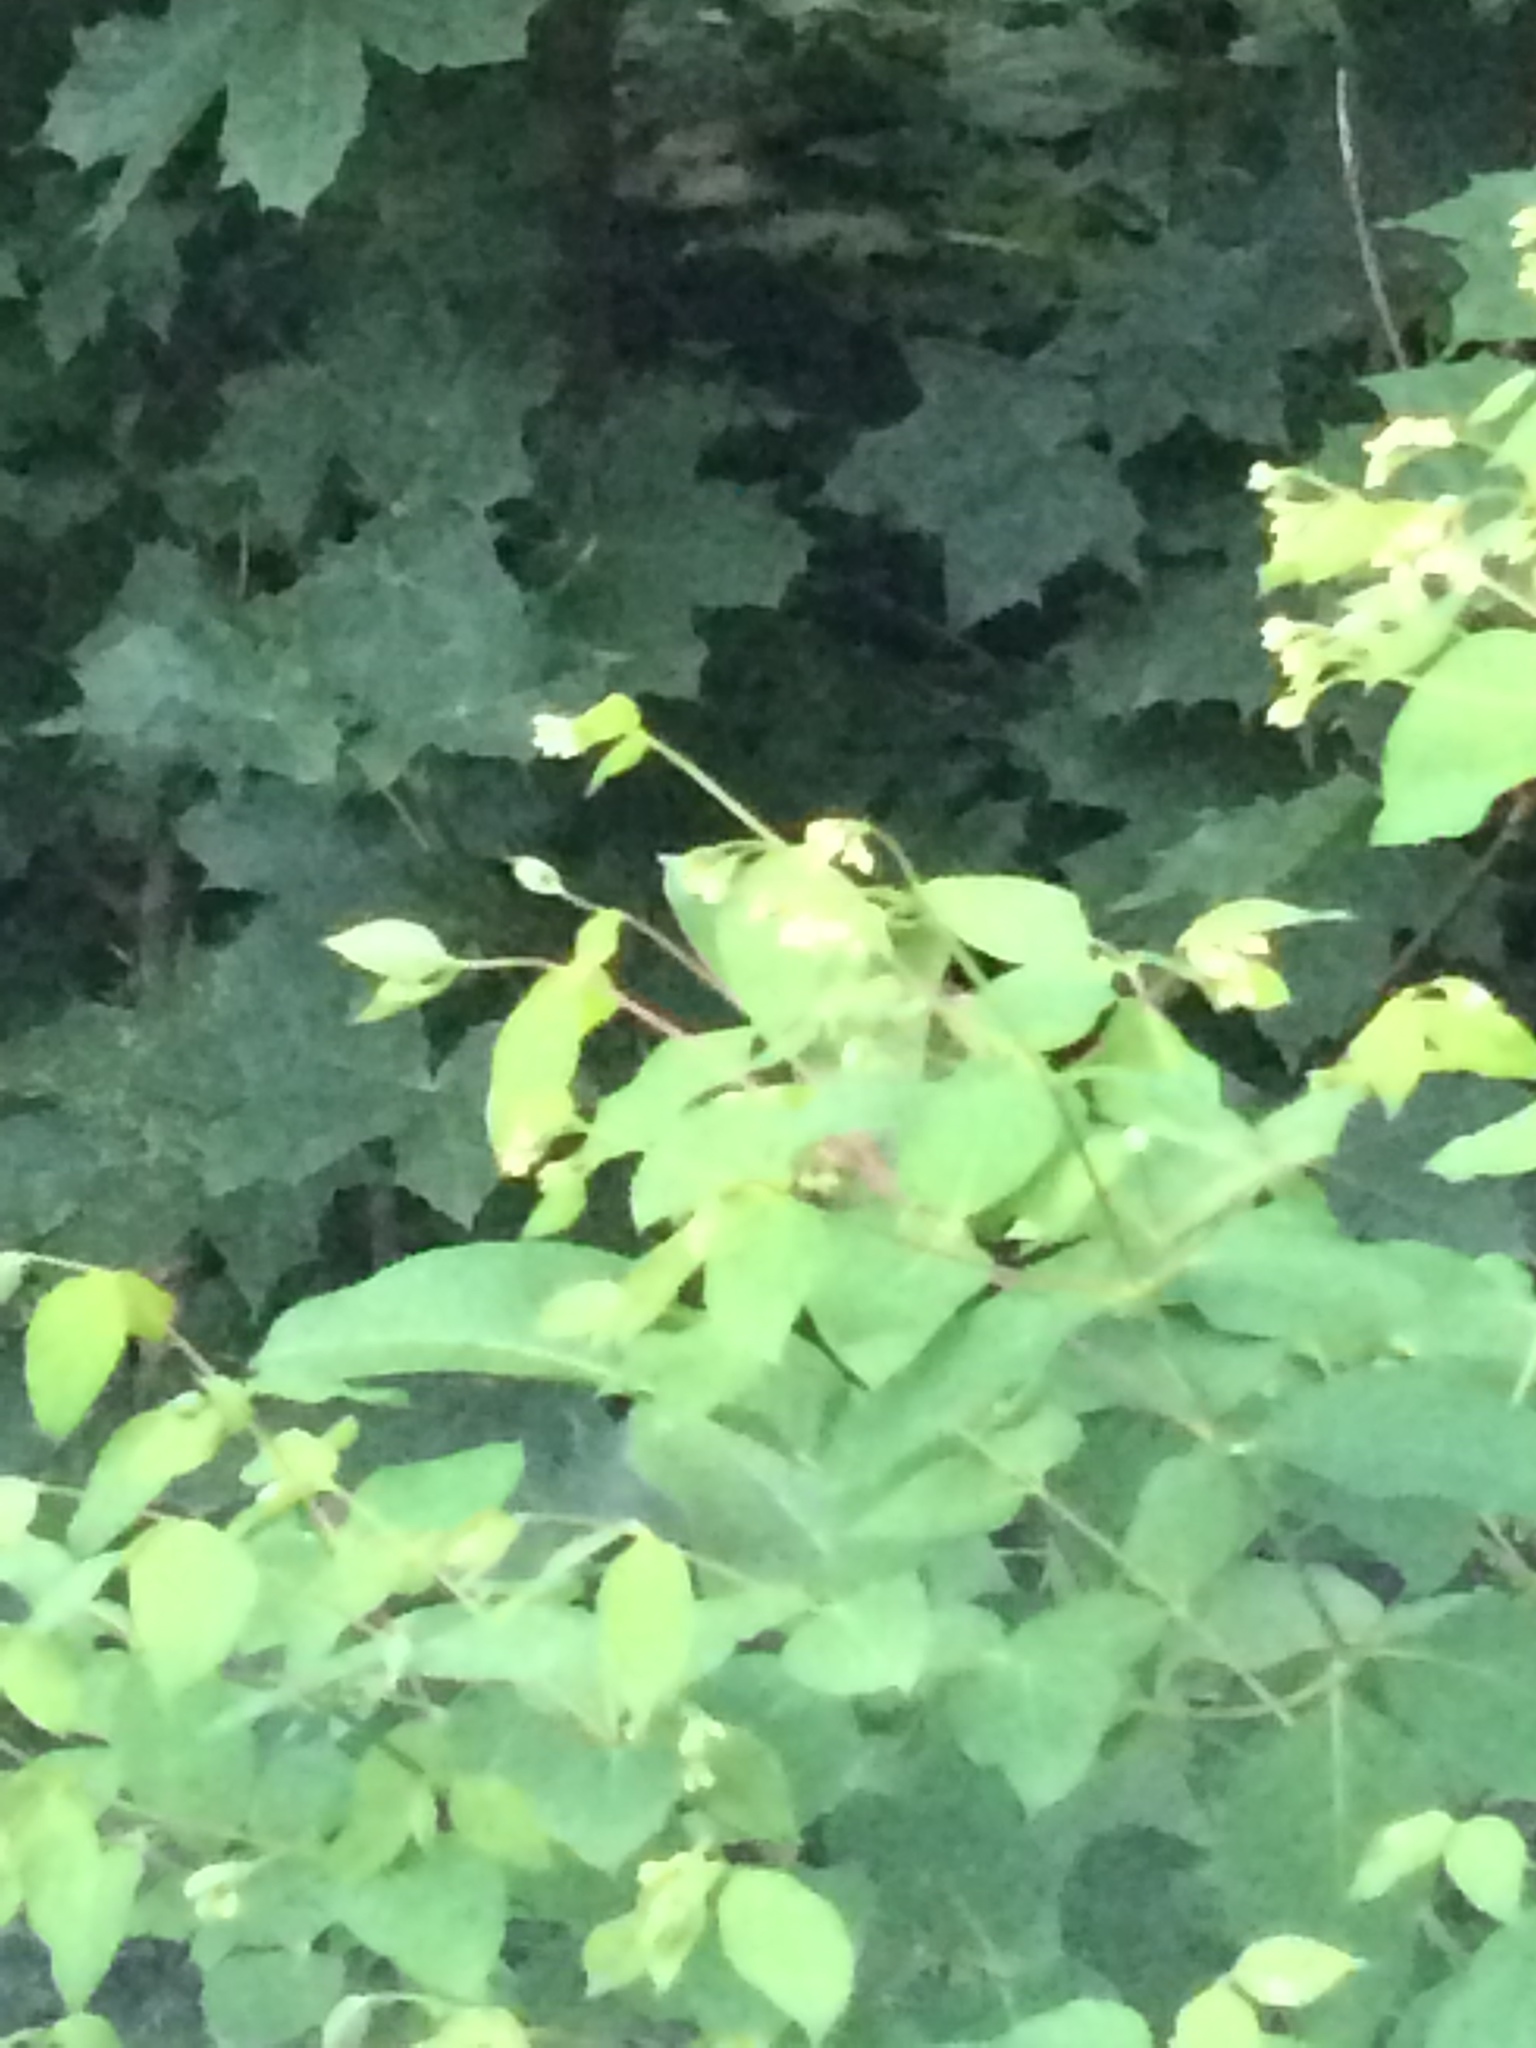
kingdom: Plantae
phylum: Tracheophyta
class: Magnoliopsida
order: Gentianales
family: Apocynaceae
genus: Apocynum
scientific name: Apocynum androsaemifolium
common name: Spreading dogbane
